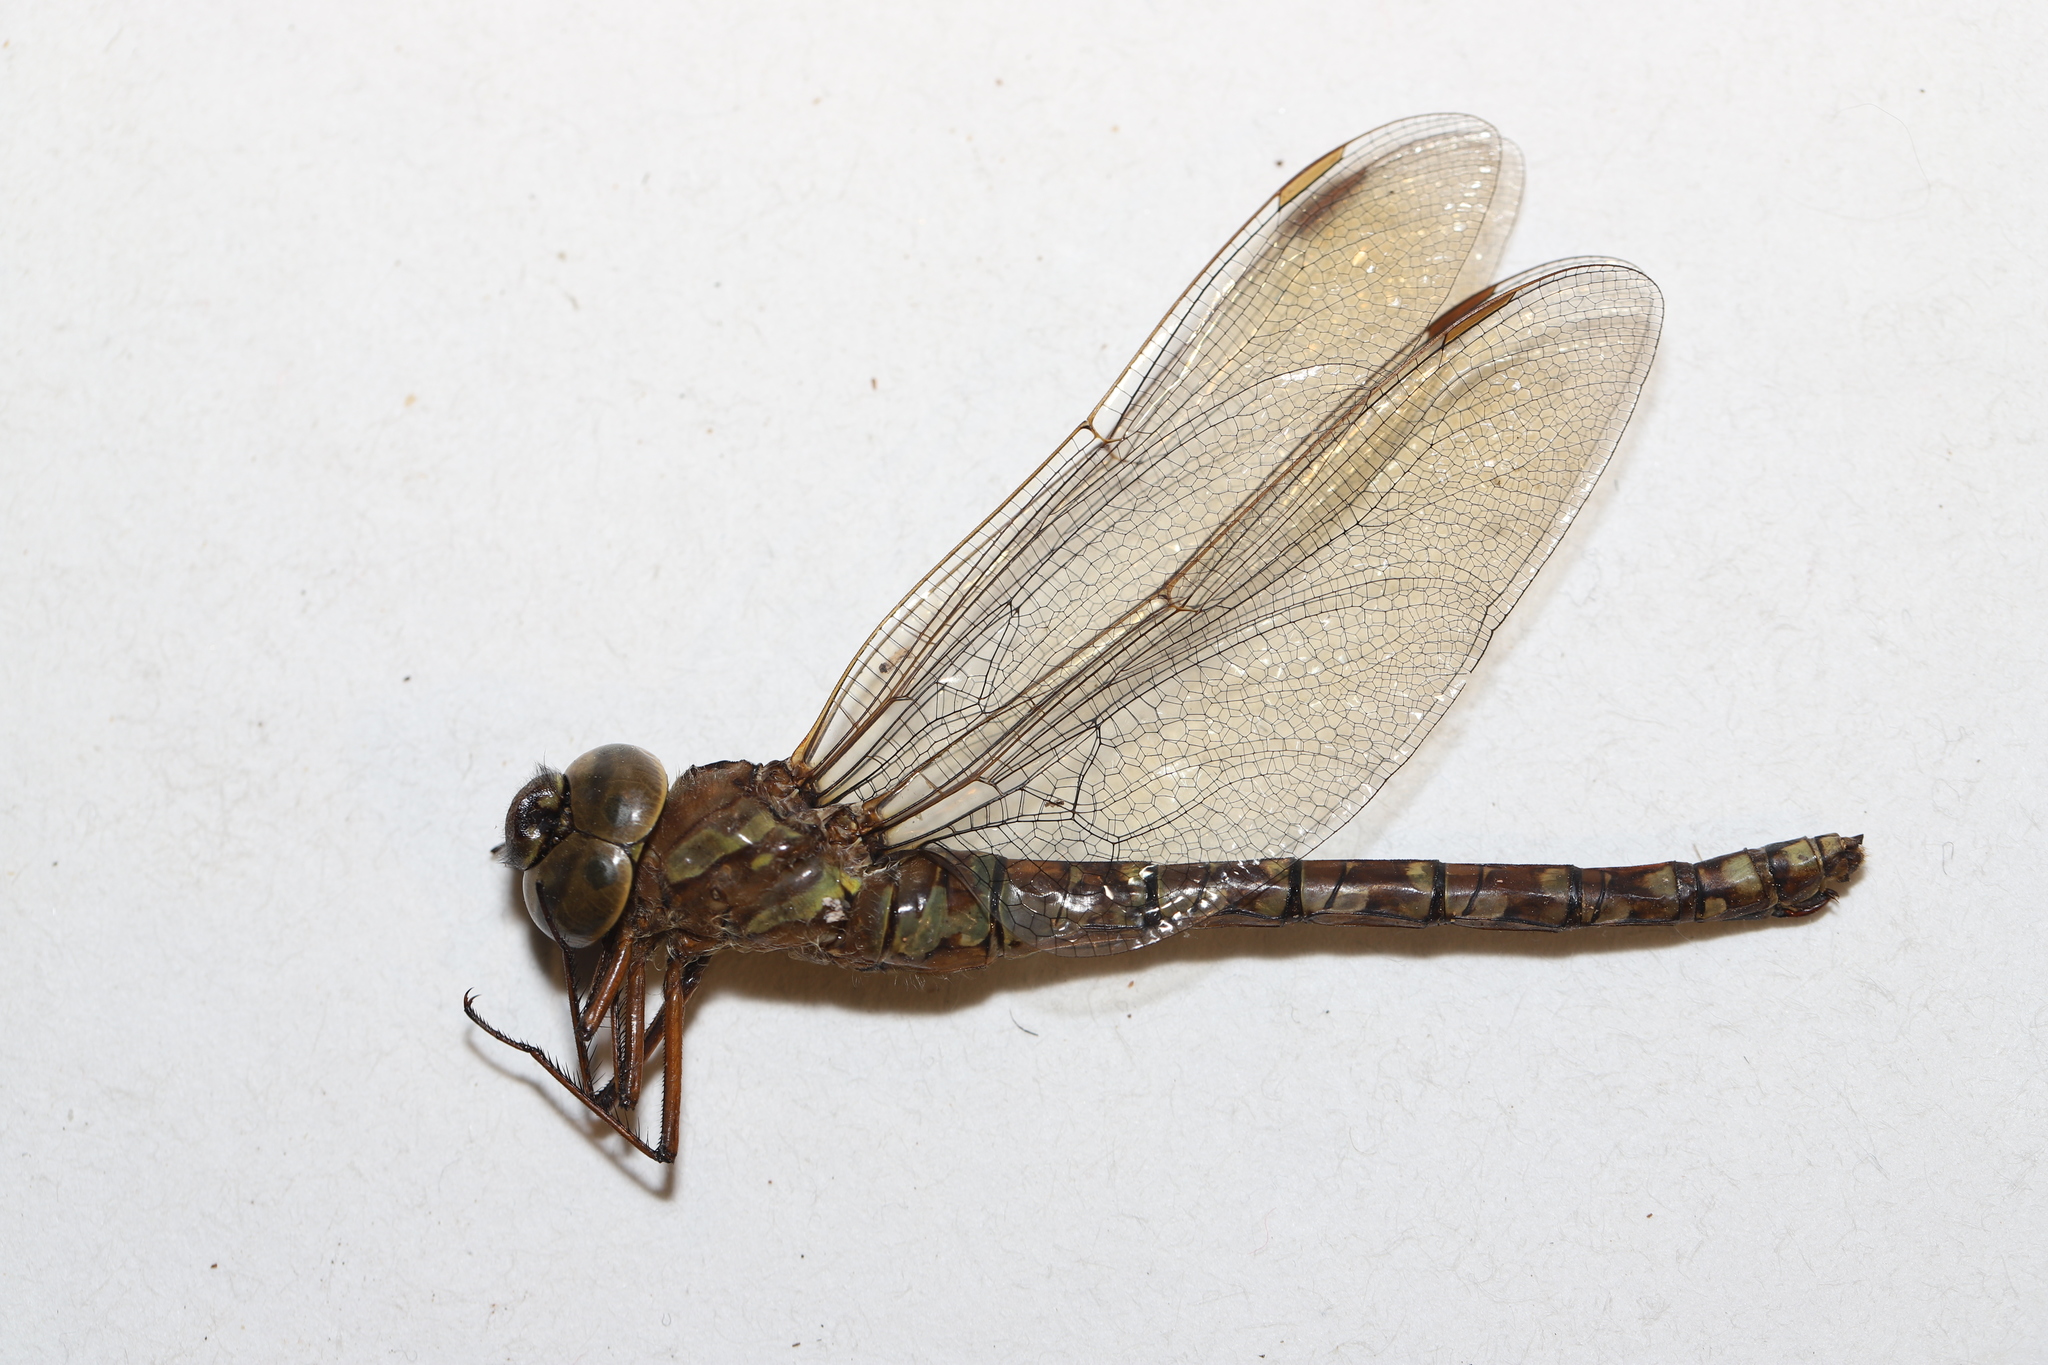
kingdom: Animalia
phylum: Arthropoda
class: Insecta
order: Odonata
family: Aeshnidae
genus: Aeshna
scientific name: Aeshna canadensis
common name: Canada darner
